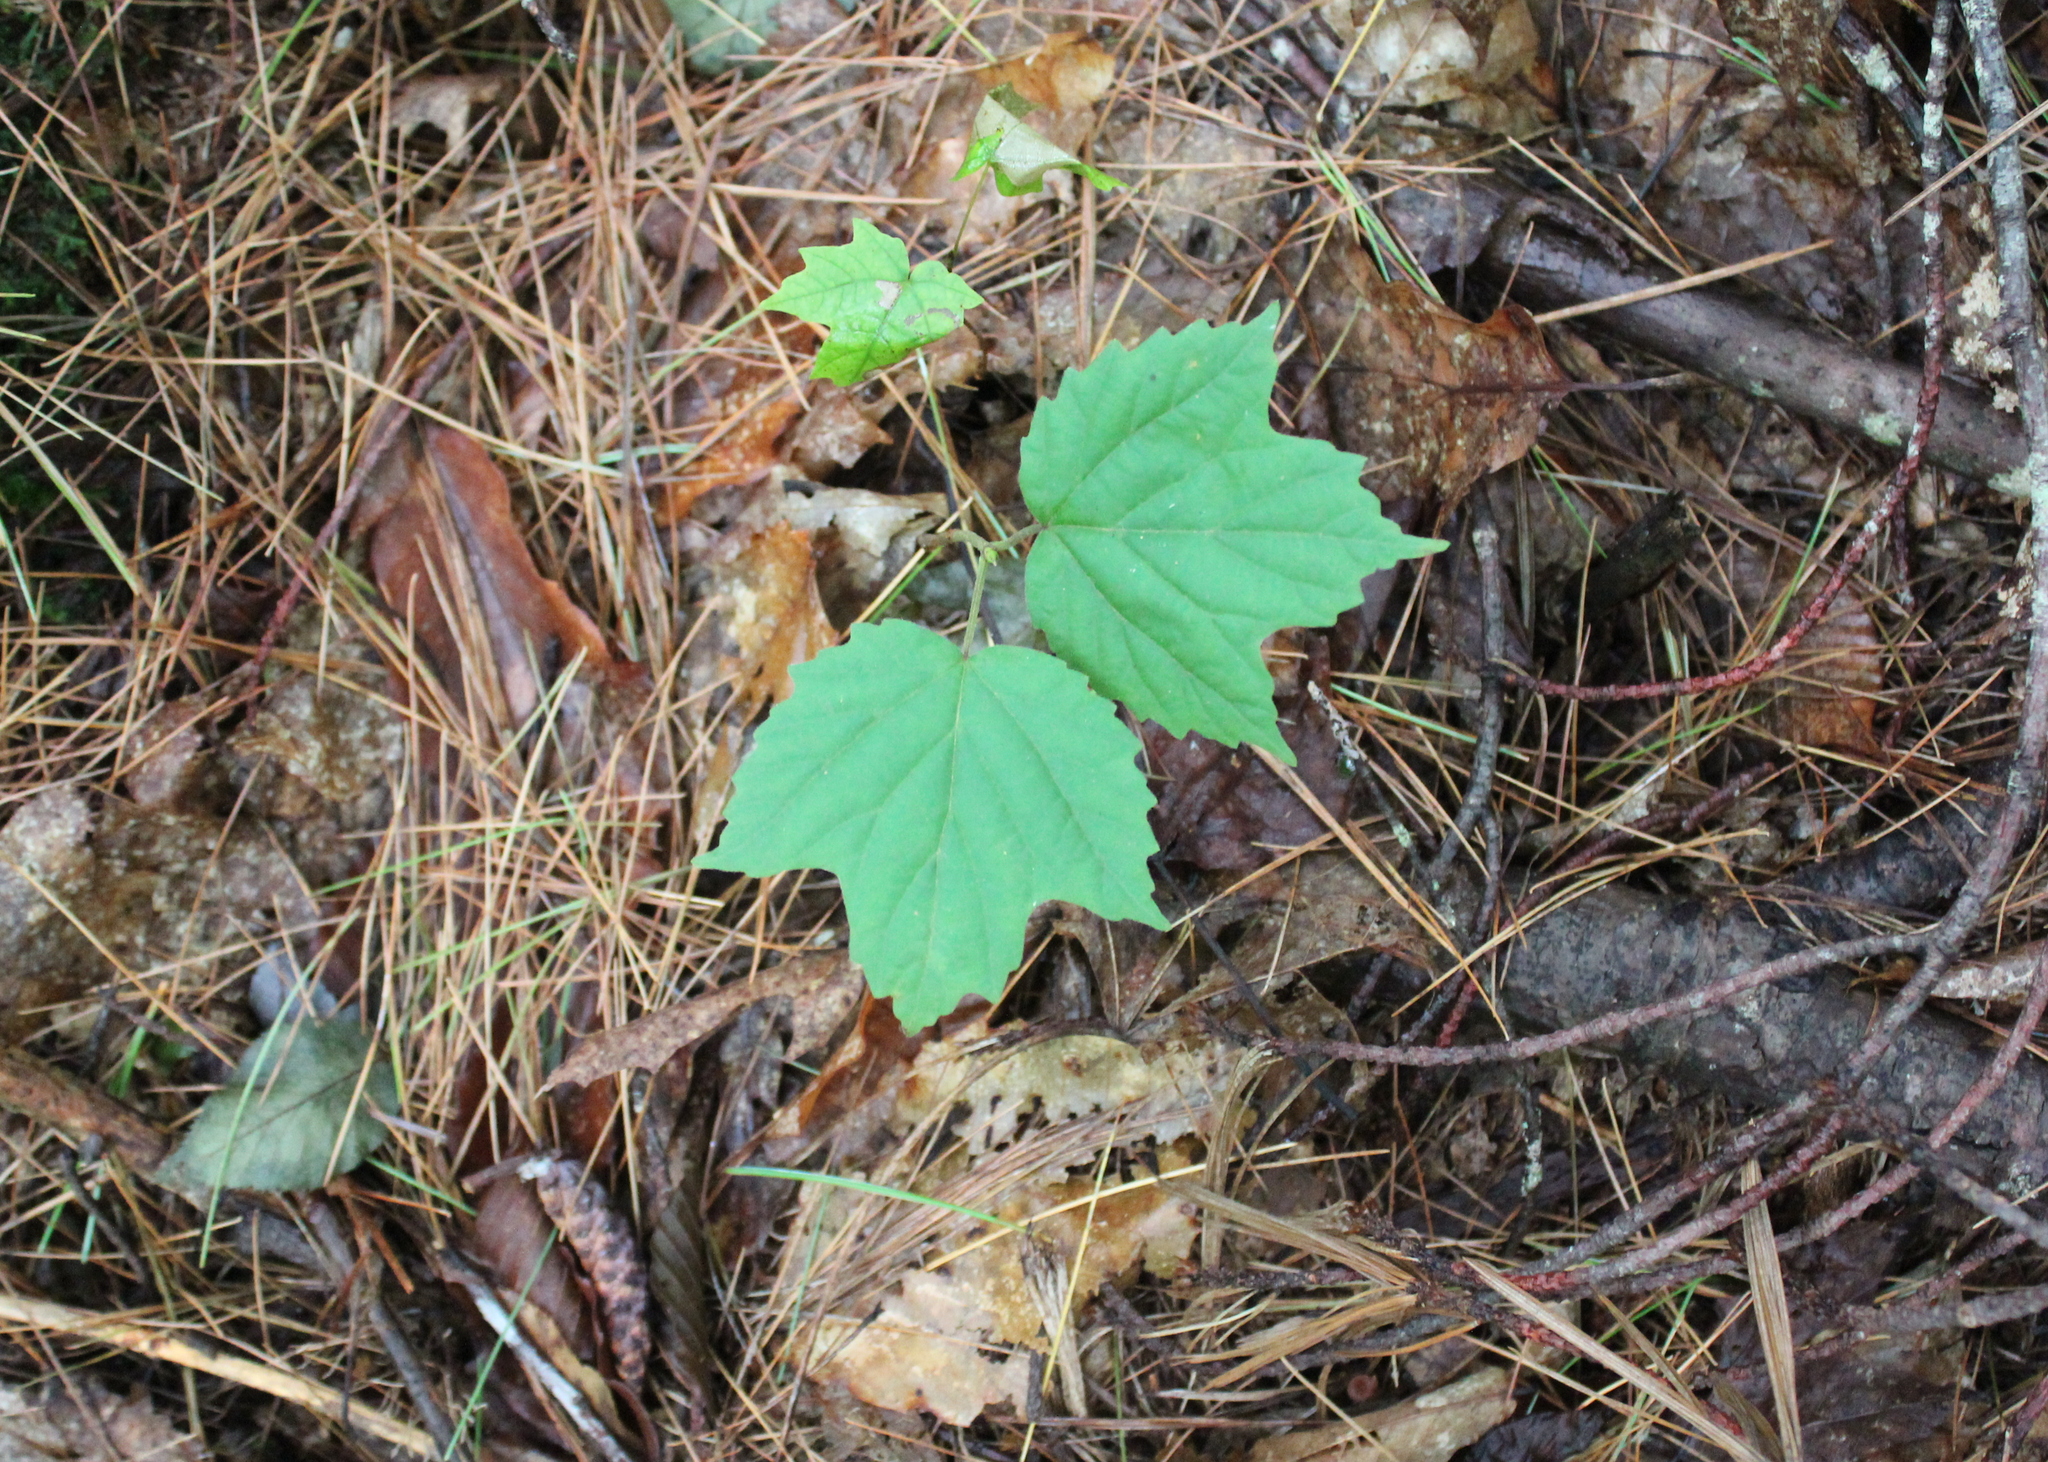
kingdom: Plantae
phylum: Tracheophyta
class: Magnoliopsida
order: Dipsacales
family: Viburnaceae
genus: Viburnum
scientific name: Viburnum acerifolium
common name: Dockmackie
